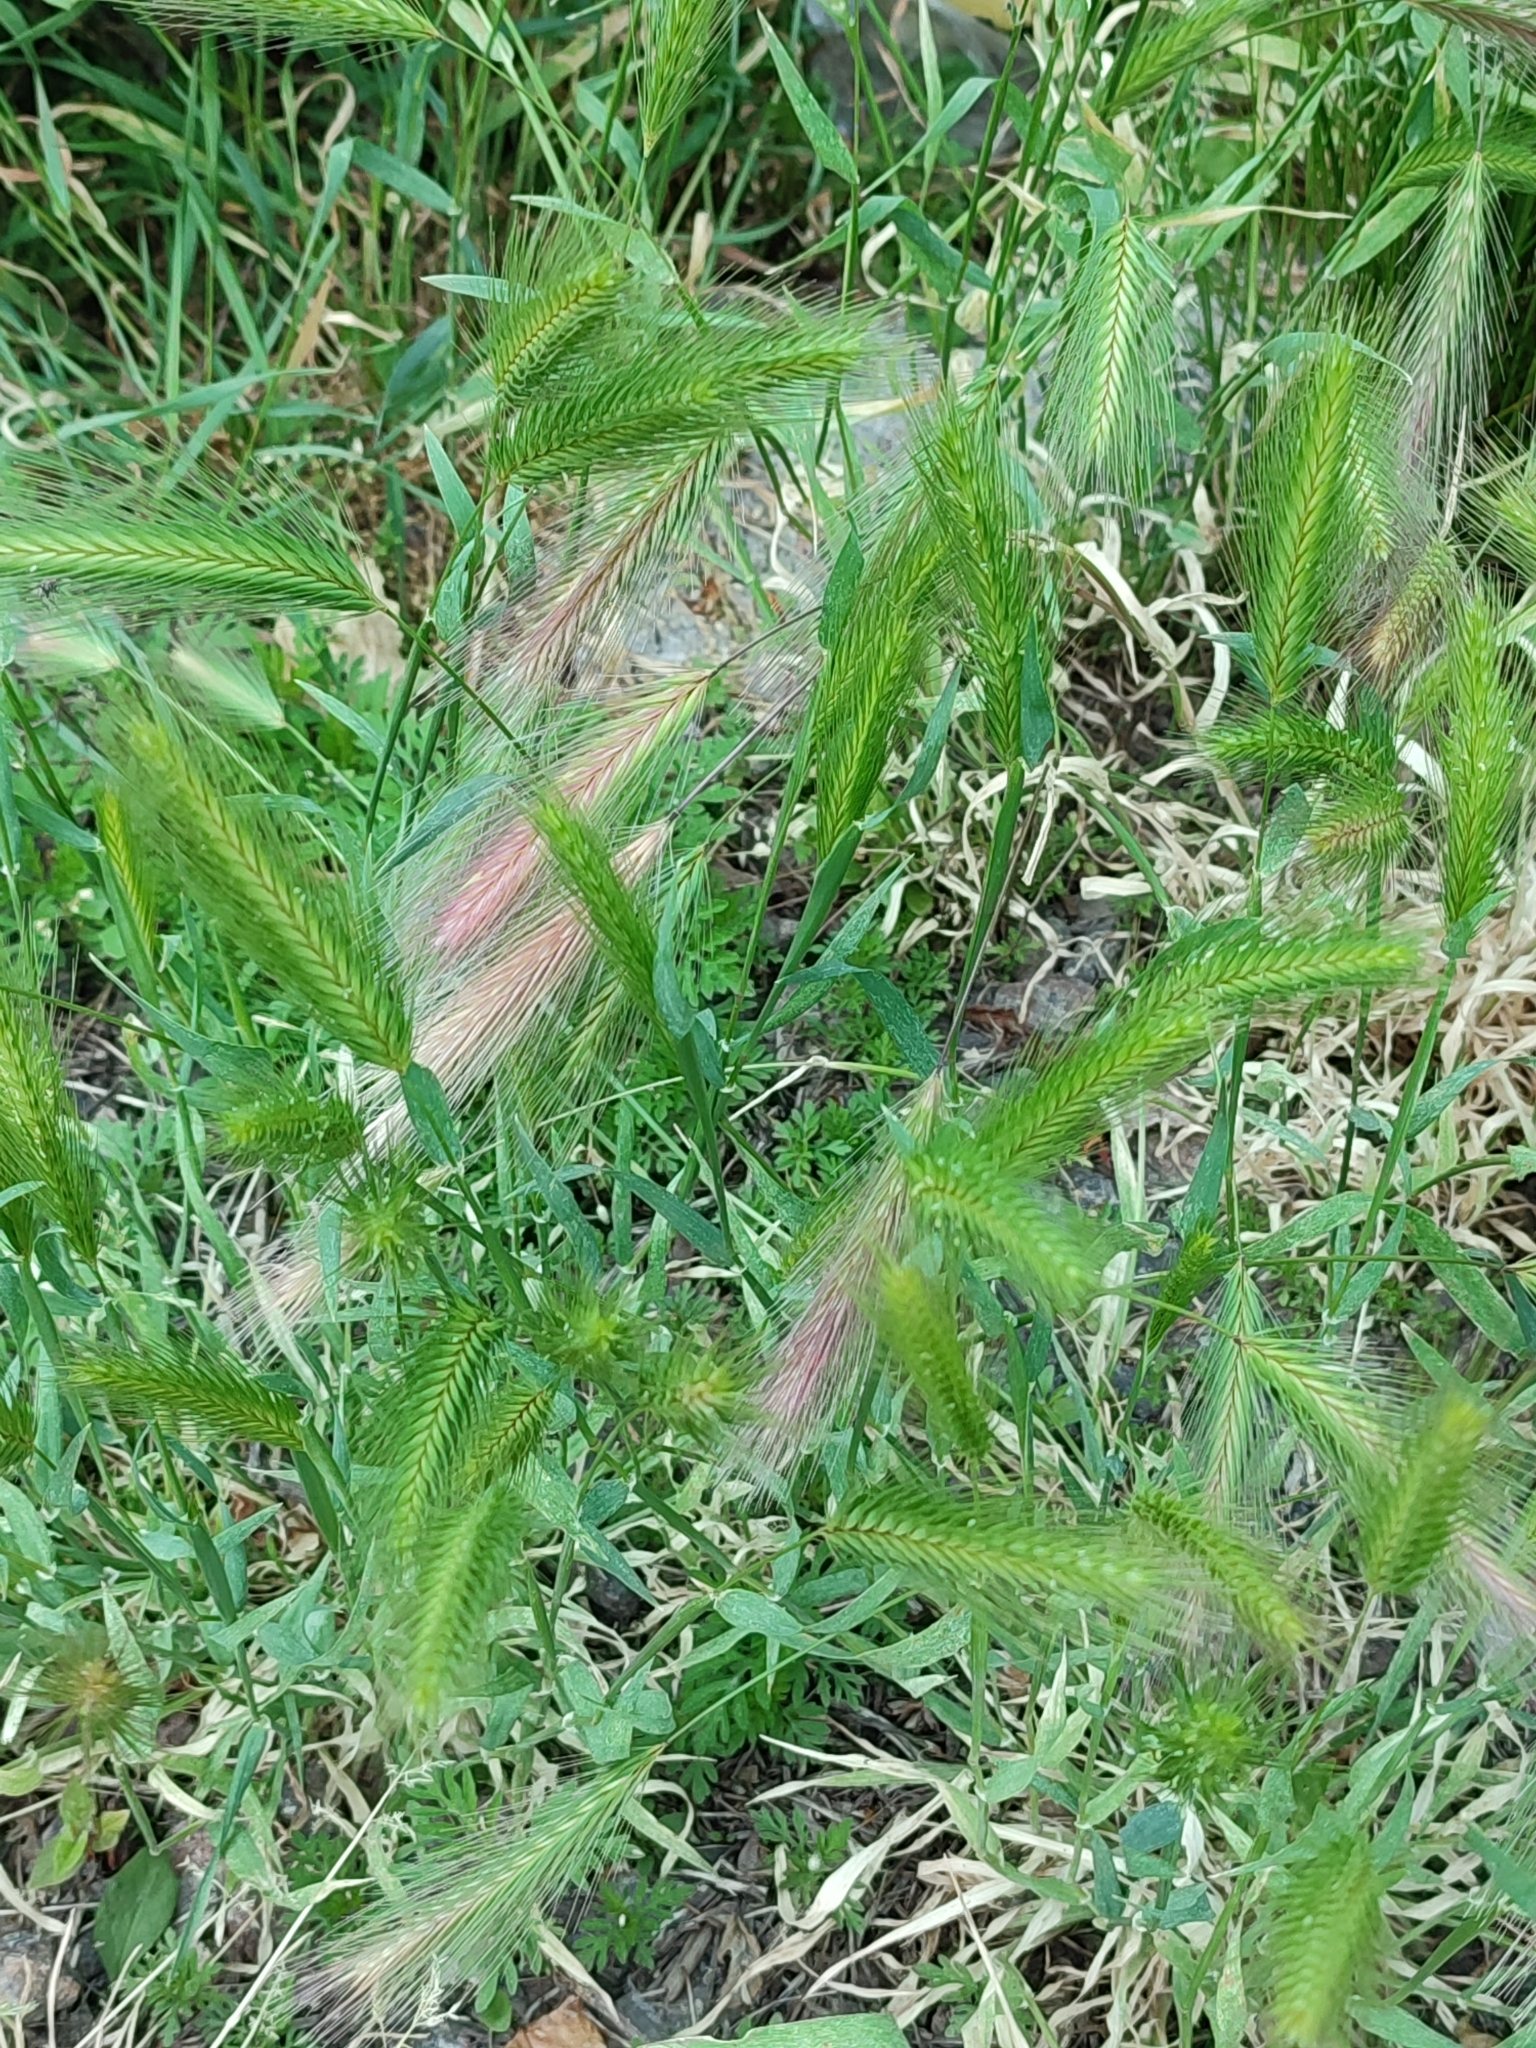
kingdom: Plantae
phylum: Tracheophyta
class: Liliopsida
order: Poales
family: Poaceae
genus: Hordeum
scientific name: Hordeum murinum
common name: Wall barley
